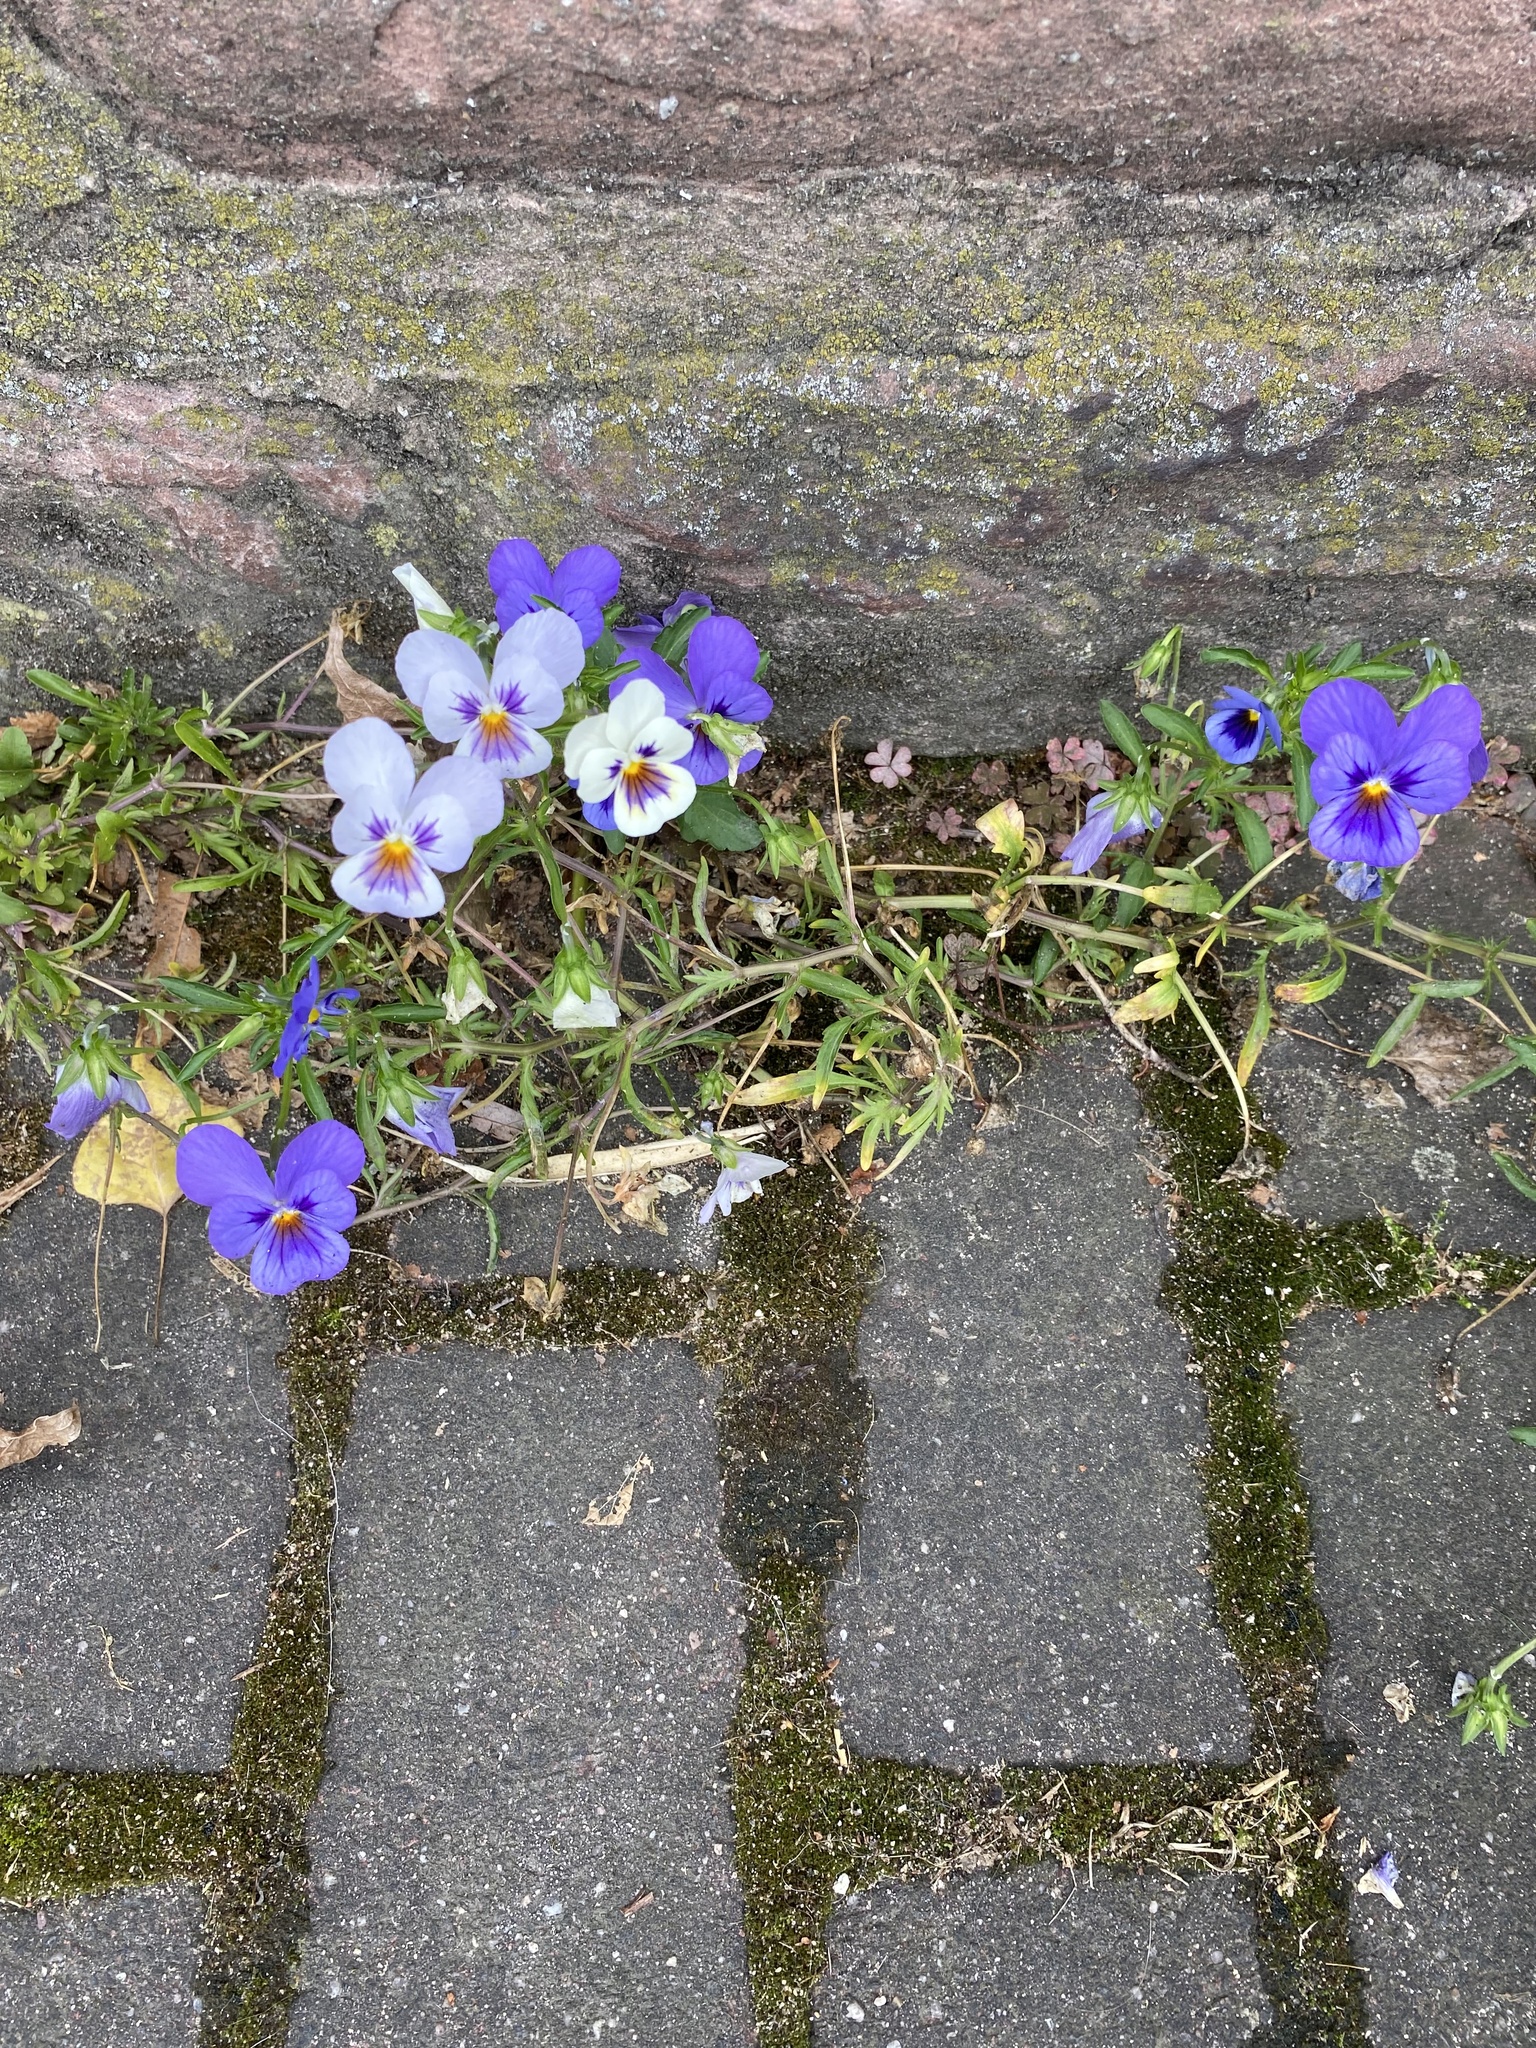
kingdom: Plantae
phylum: Tracheophyta
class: Magnoliopsida
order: Malpighiales
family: Violaceae
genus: Viola
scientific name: Viola williamsii
